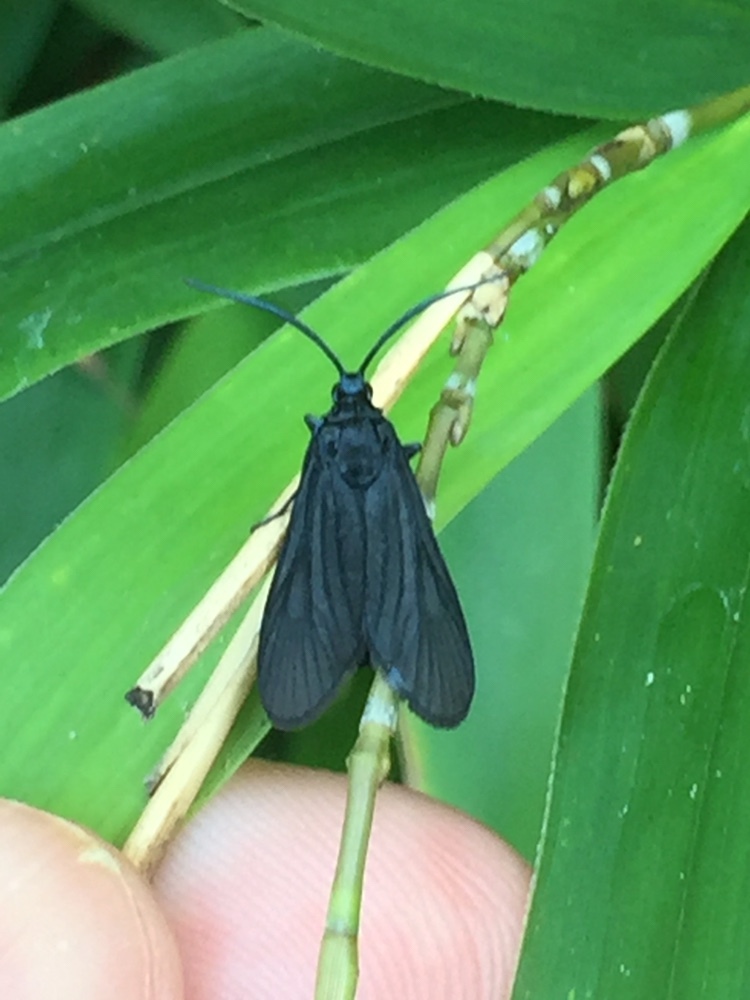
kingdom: Animalia
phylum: Arthropoda
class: Insecta
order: Lepidoptera
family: Zygaenidae
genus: Artona
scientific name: Artona martini
